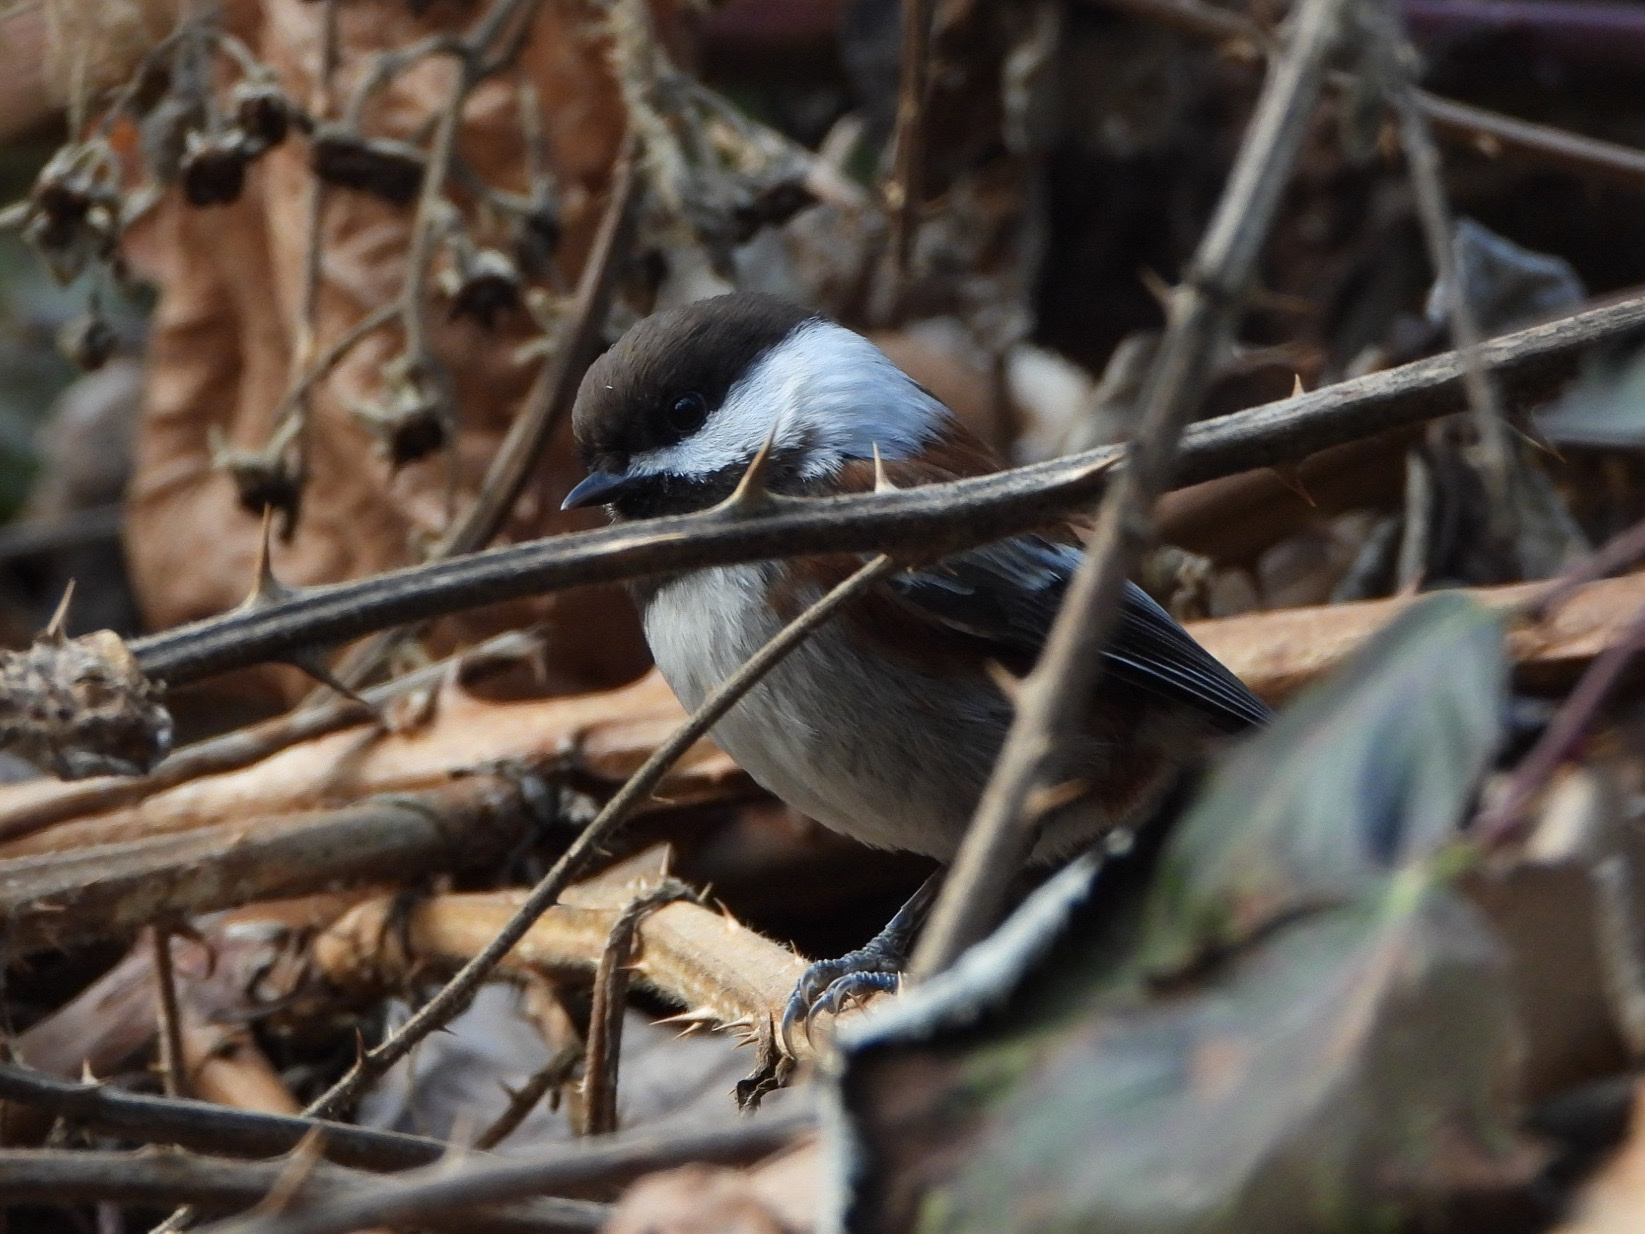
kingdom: Animalia
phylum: Chordata
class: Aves
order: Passeriformes
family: Paridae
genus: Poecile
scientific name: Poecile rufescens
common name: Chestnut-backed chickadee
